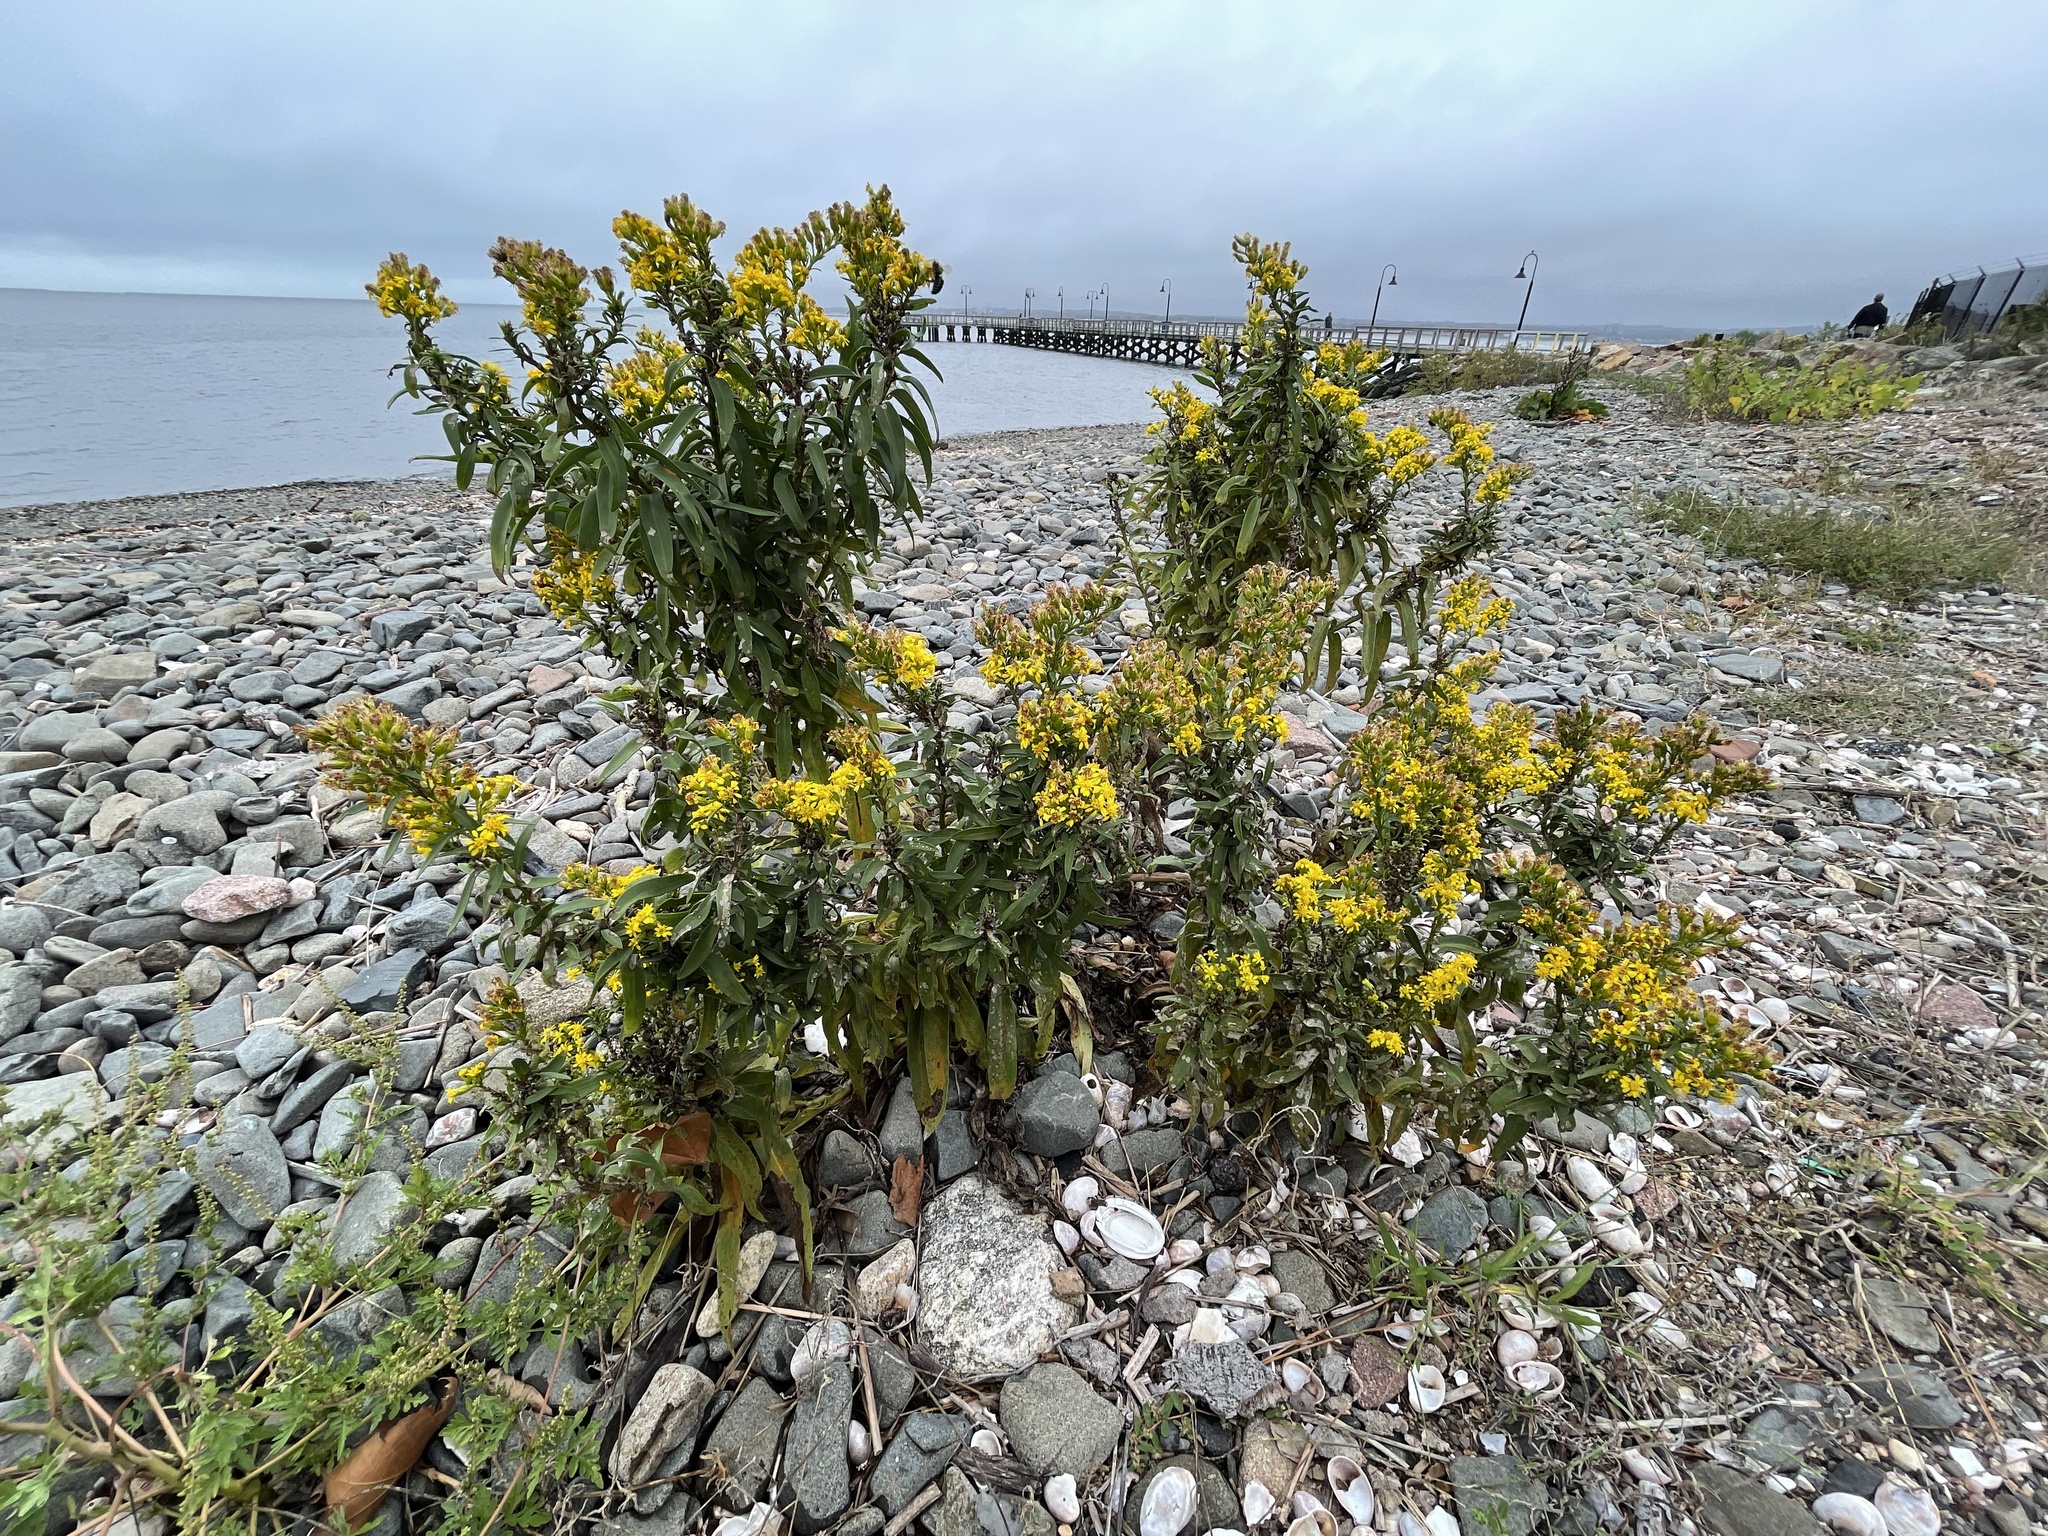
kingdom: Plantae
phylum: Tracheophyta
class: Magnoliopsida
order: Asterales
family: Asteraceae
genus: Solidago
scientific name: Solidago sempervirens
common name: Salt-marsh goldenrod
